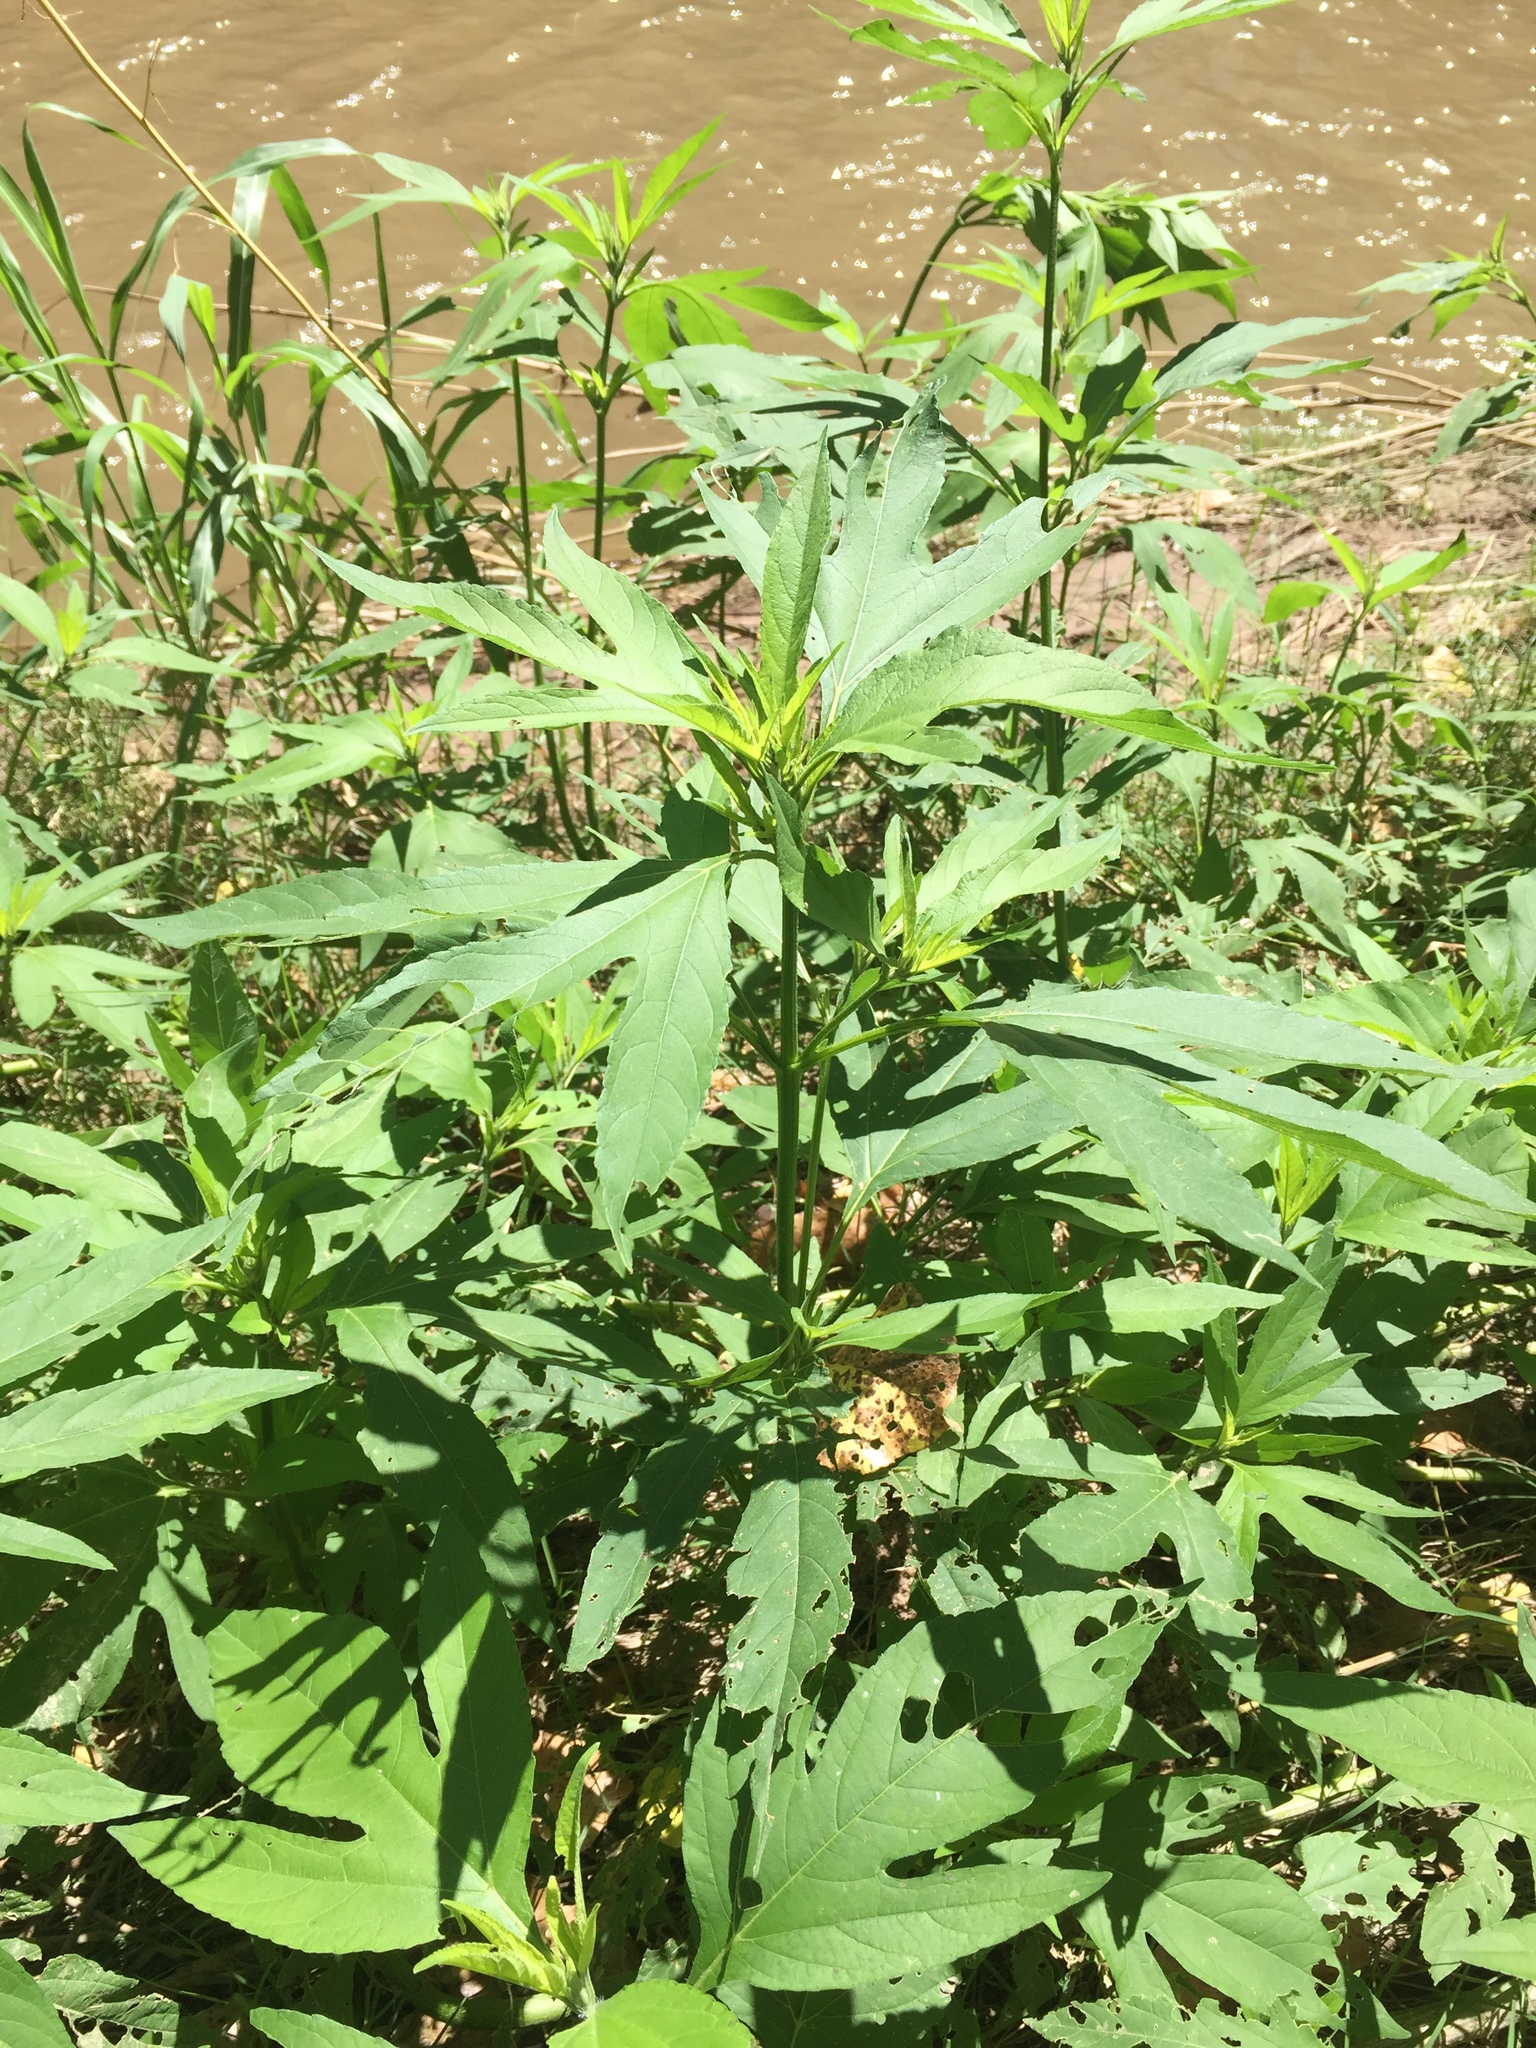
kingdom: Plantae
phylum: Tracheophyta
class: Magnoliopsida
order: Asterales
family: Asteraceae
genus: Ambrosia
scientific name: Ambrosia trifida
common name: Giant ragweed
